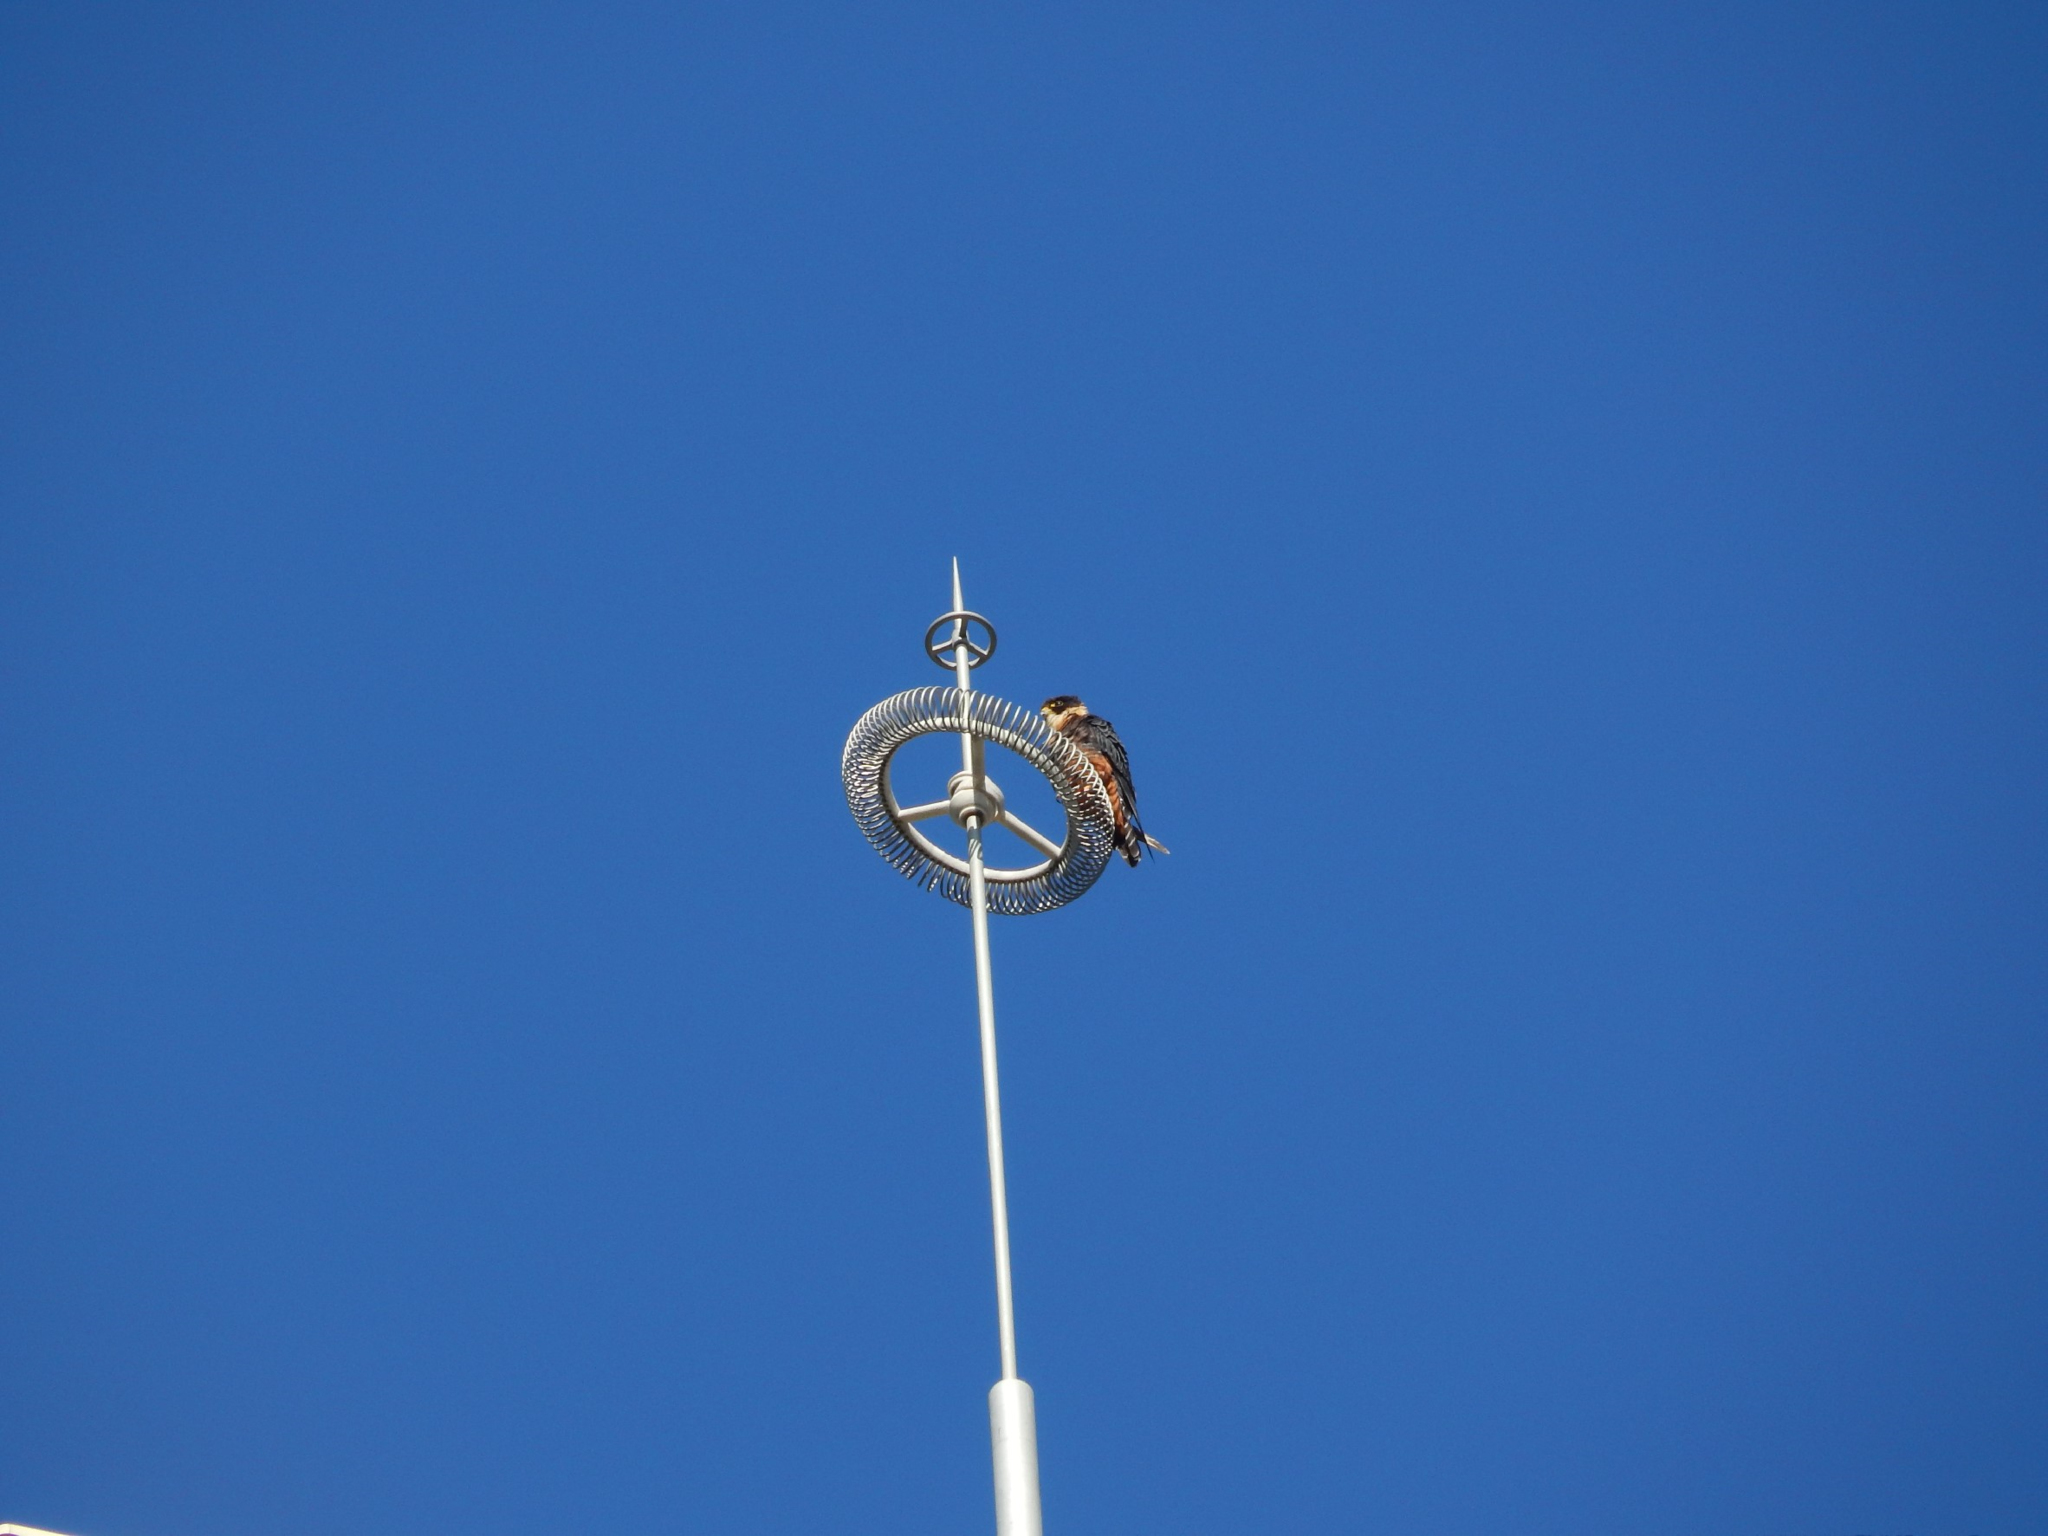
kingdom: Animalia
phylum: Chordata
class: Aves
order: Falconiformes
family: Falconidae
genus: Falco
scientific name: Falco rufigularis
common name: Bat falcon
